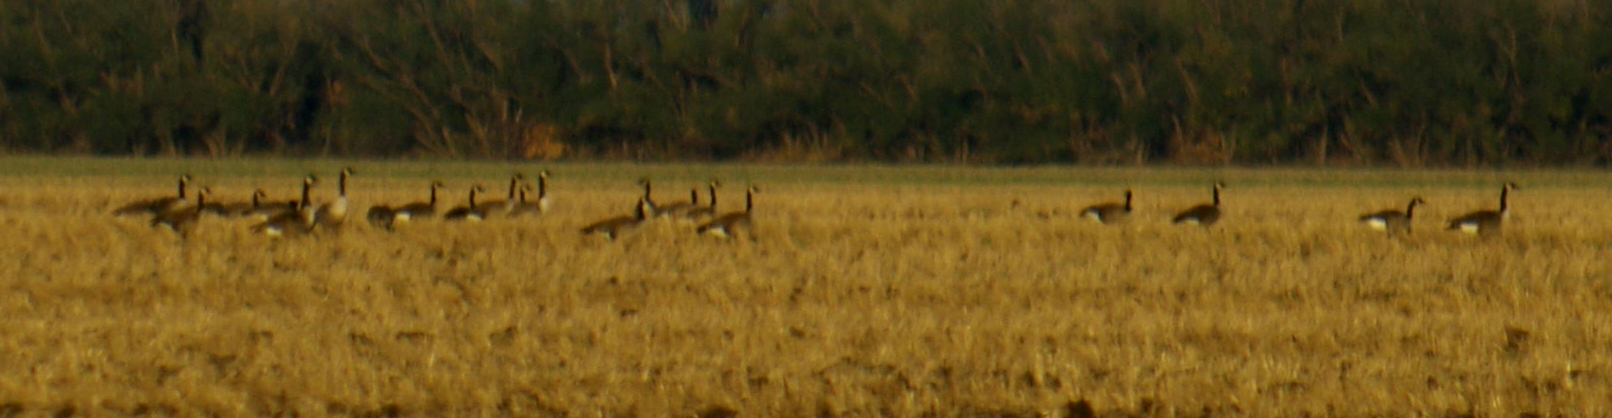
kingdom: Animalia
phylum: Chordata
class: Aves
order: Anseriformes
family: Anatidae
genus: Branta
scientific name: Branta canadensis
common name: Canada goose
